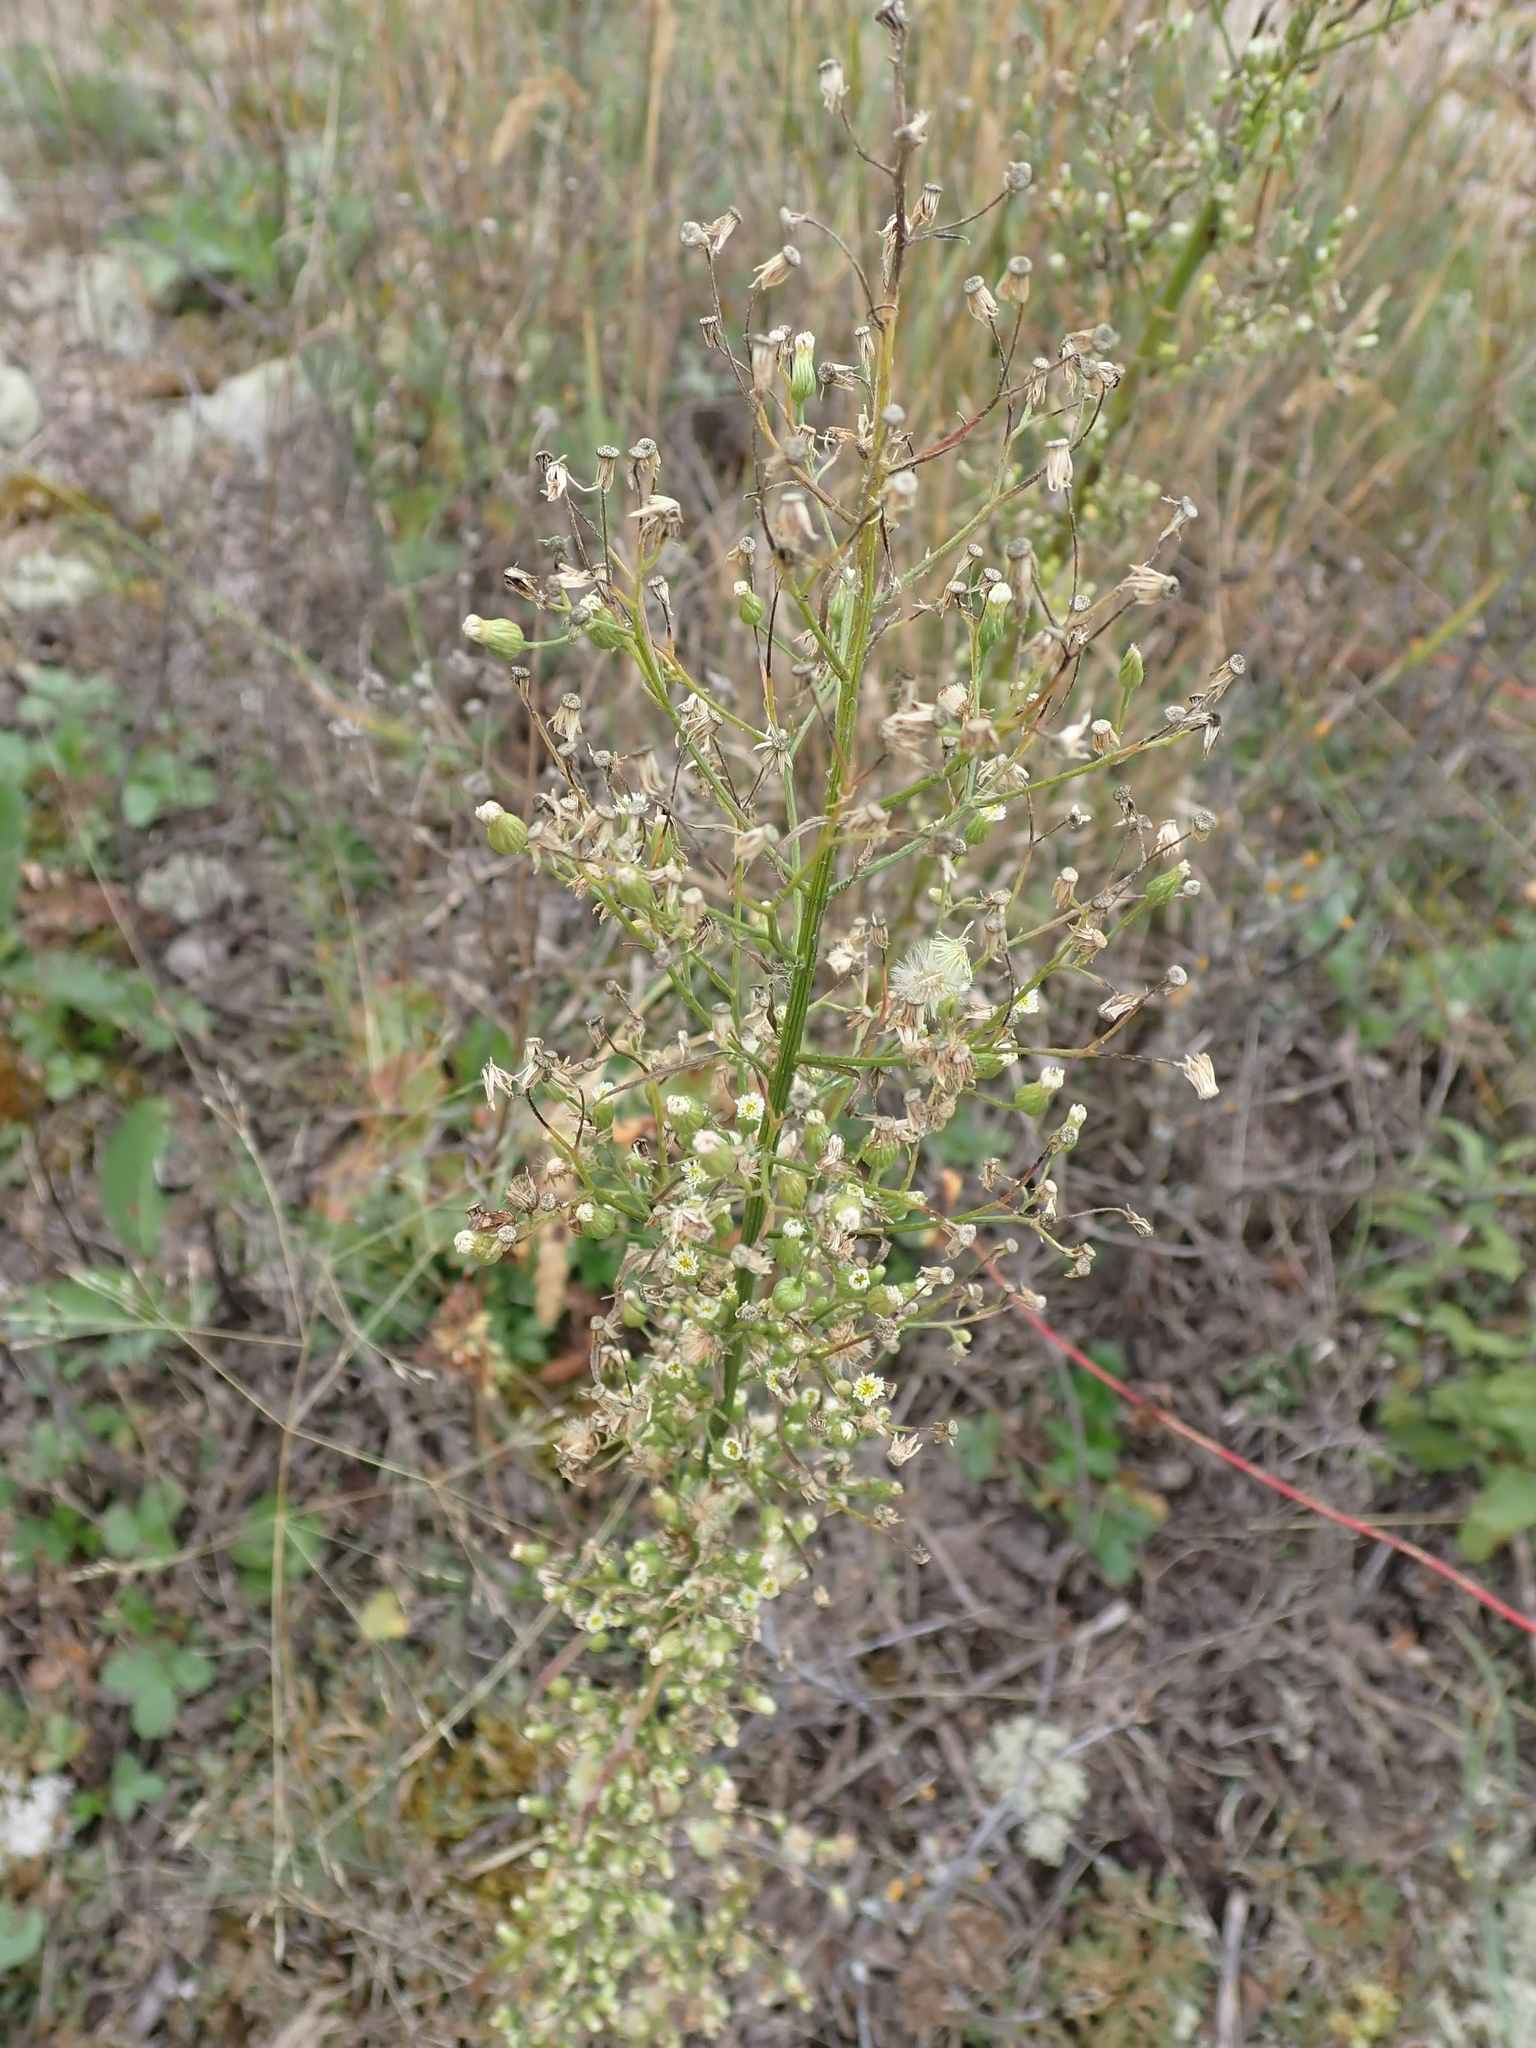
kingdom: Plantae
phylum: Tracheophyta
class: Magnoliopsida
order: Asterales
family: Asteraceae
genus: Erigeron
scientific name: Erigeron canadensis
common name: Canadian fleabane
